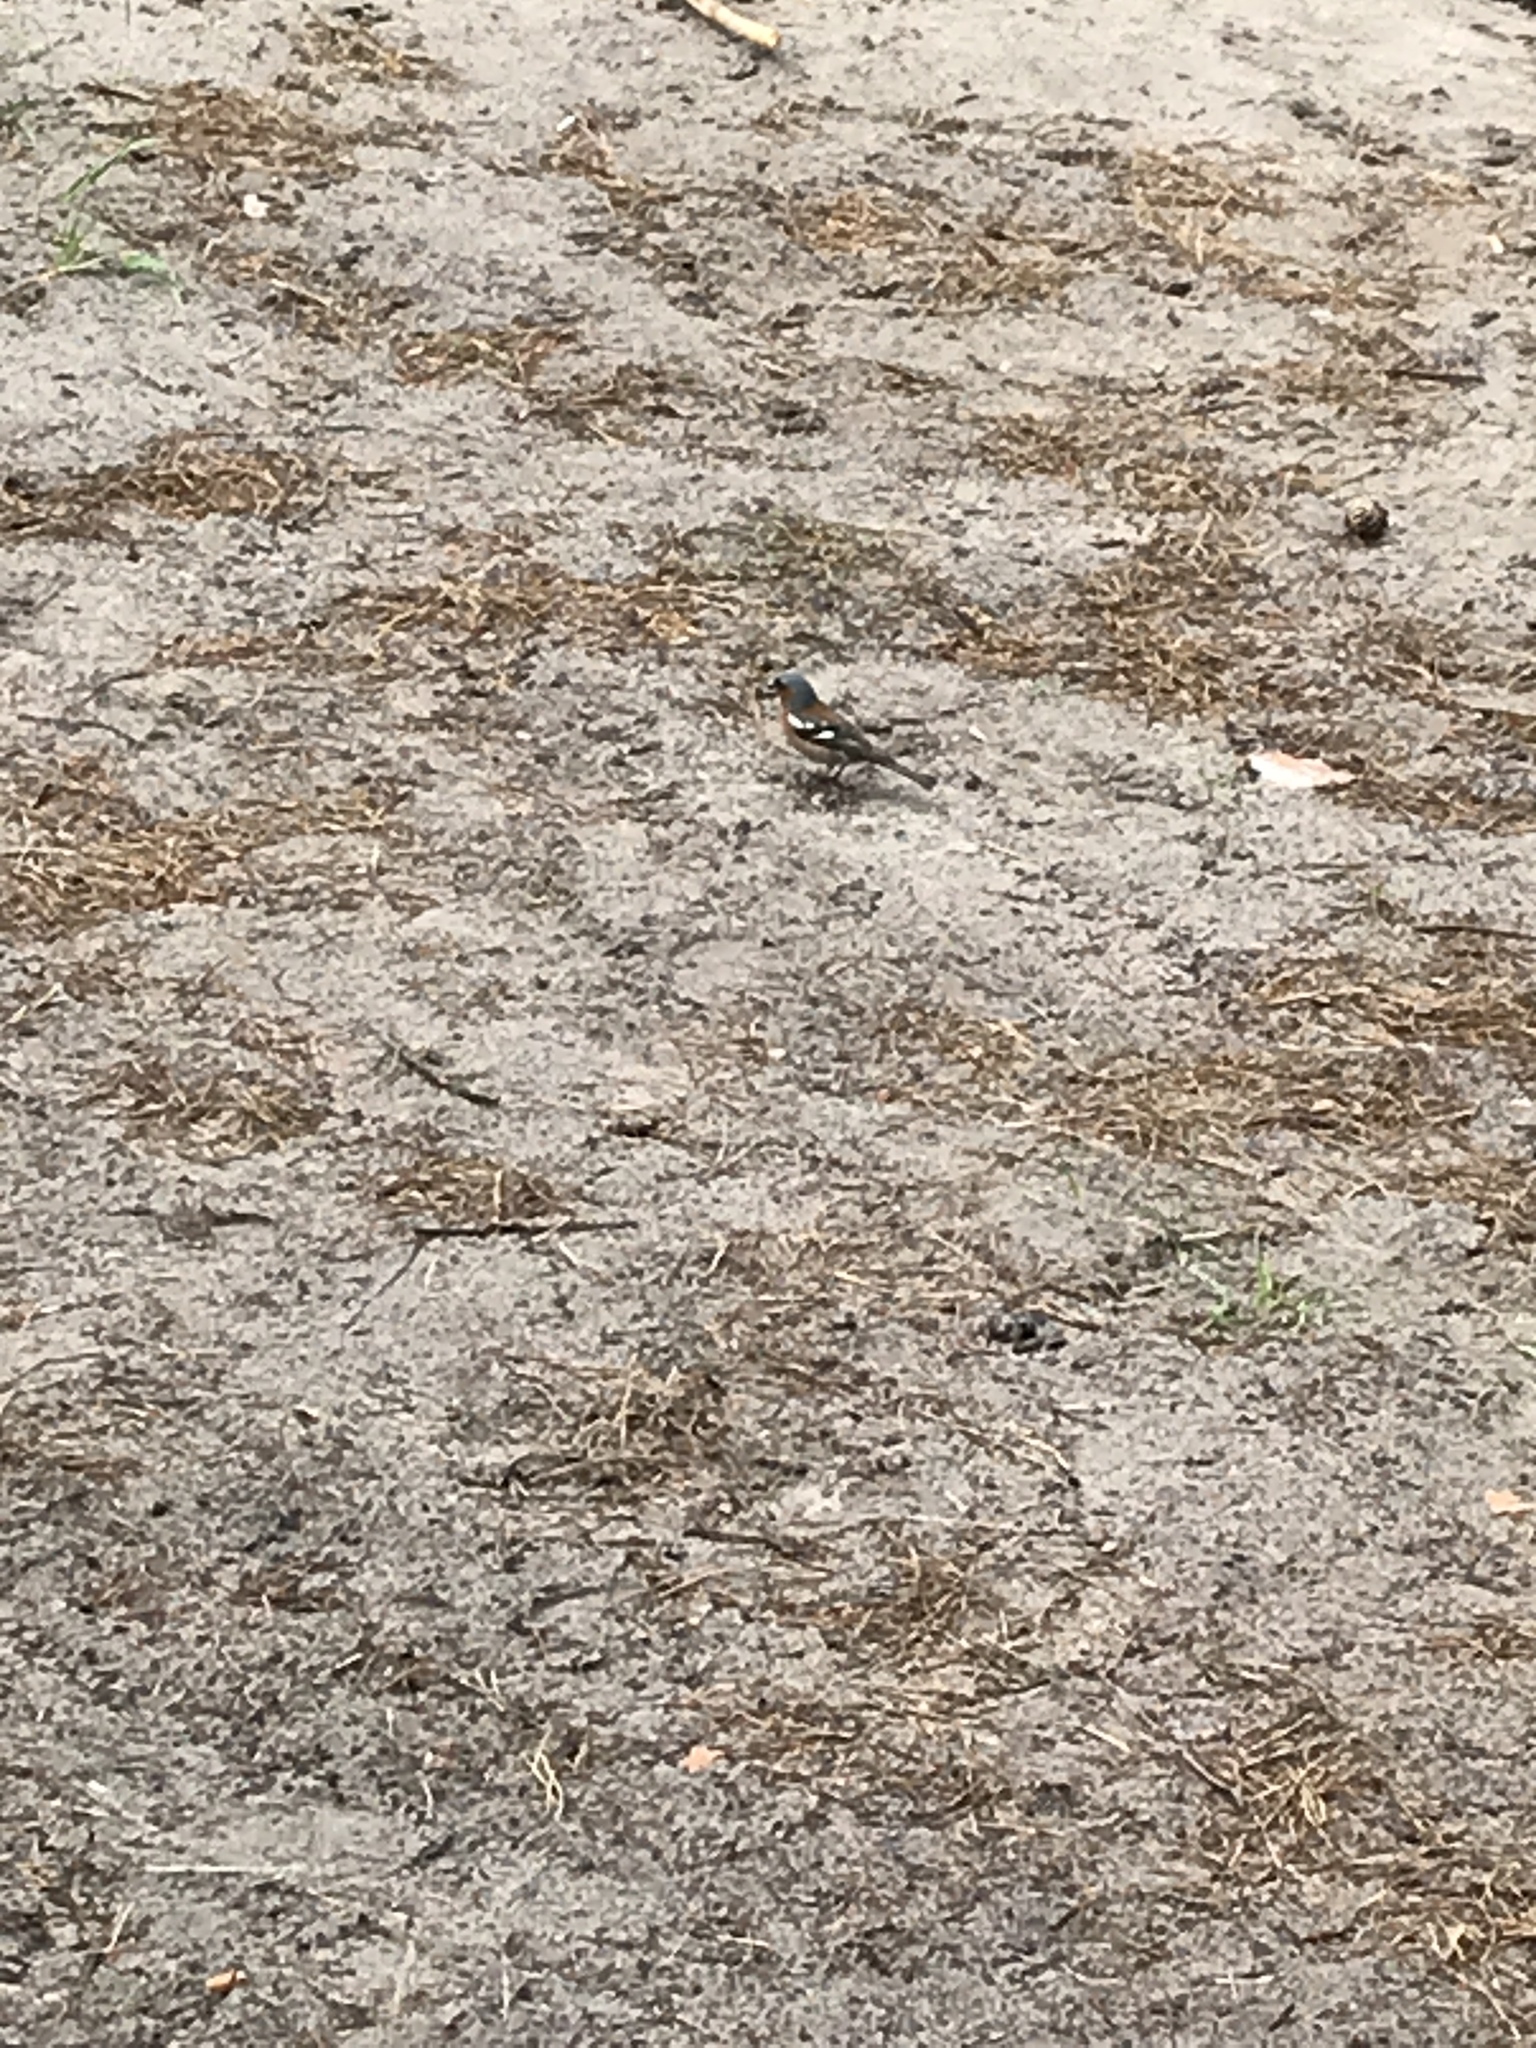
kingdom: Animalia
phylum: Chordata
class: Aves
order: Passeriformes
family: Fringillidae
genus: Fringilla
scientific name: Fringilla coelebs
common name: Common chaffinch
